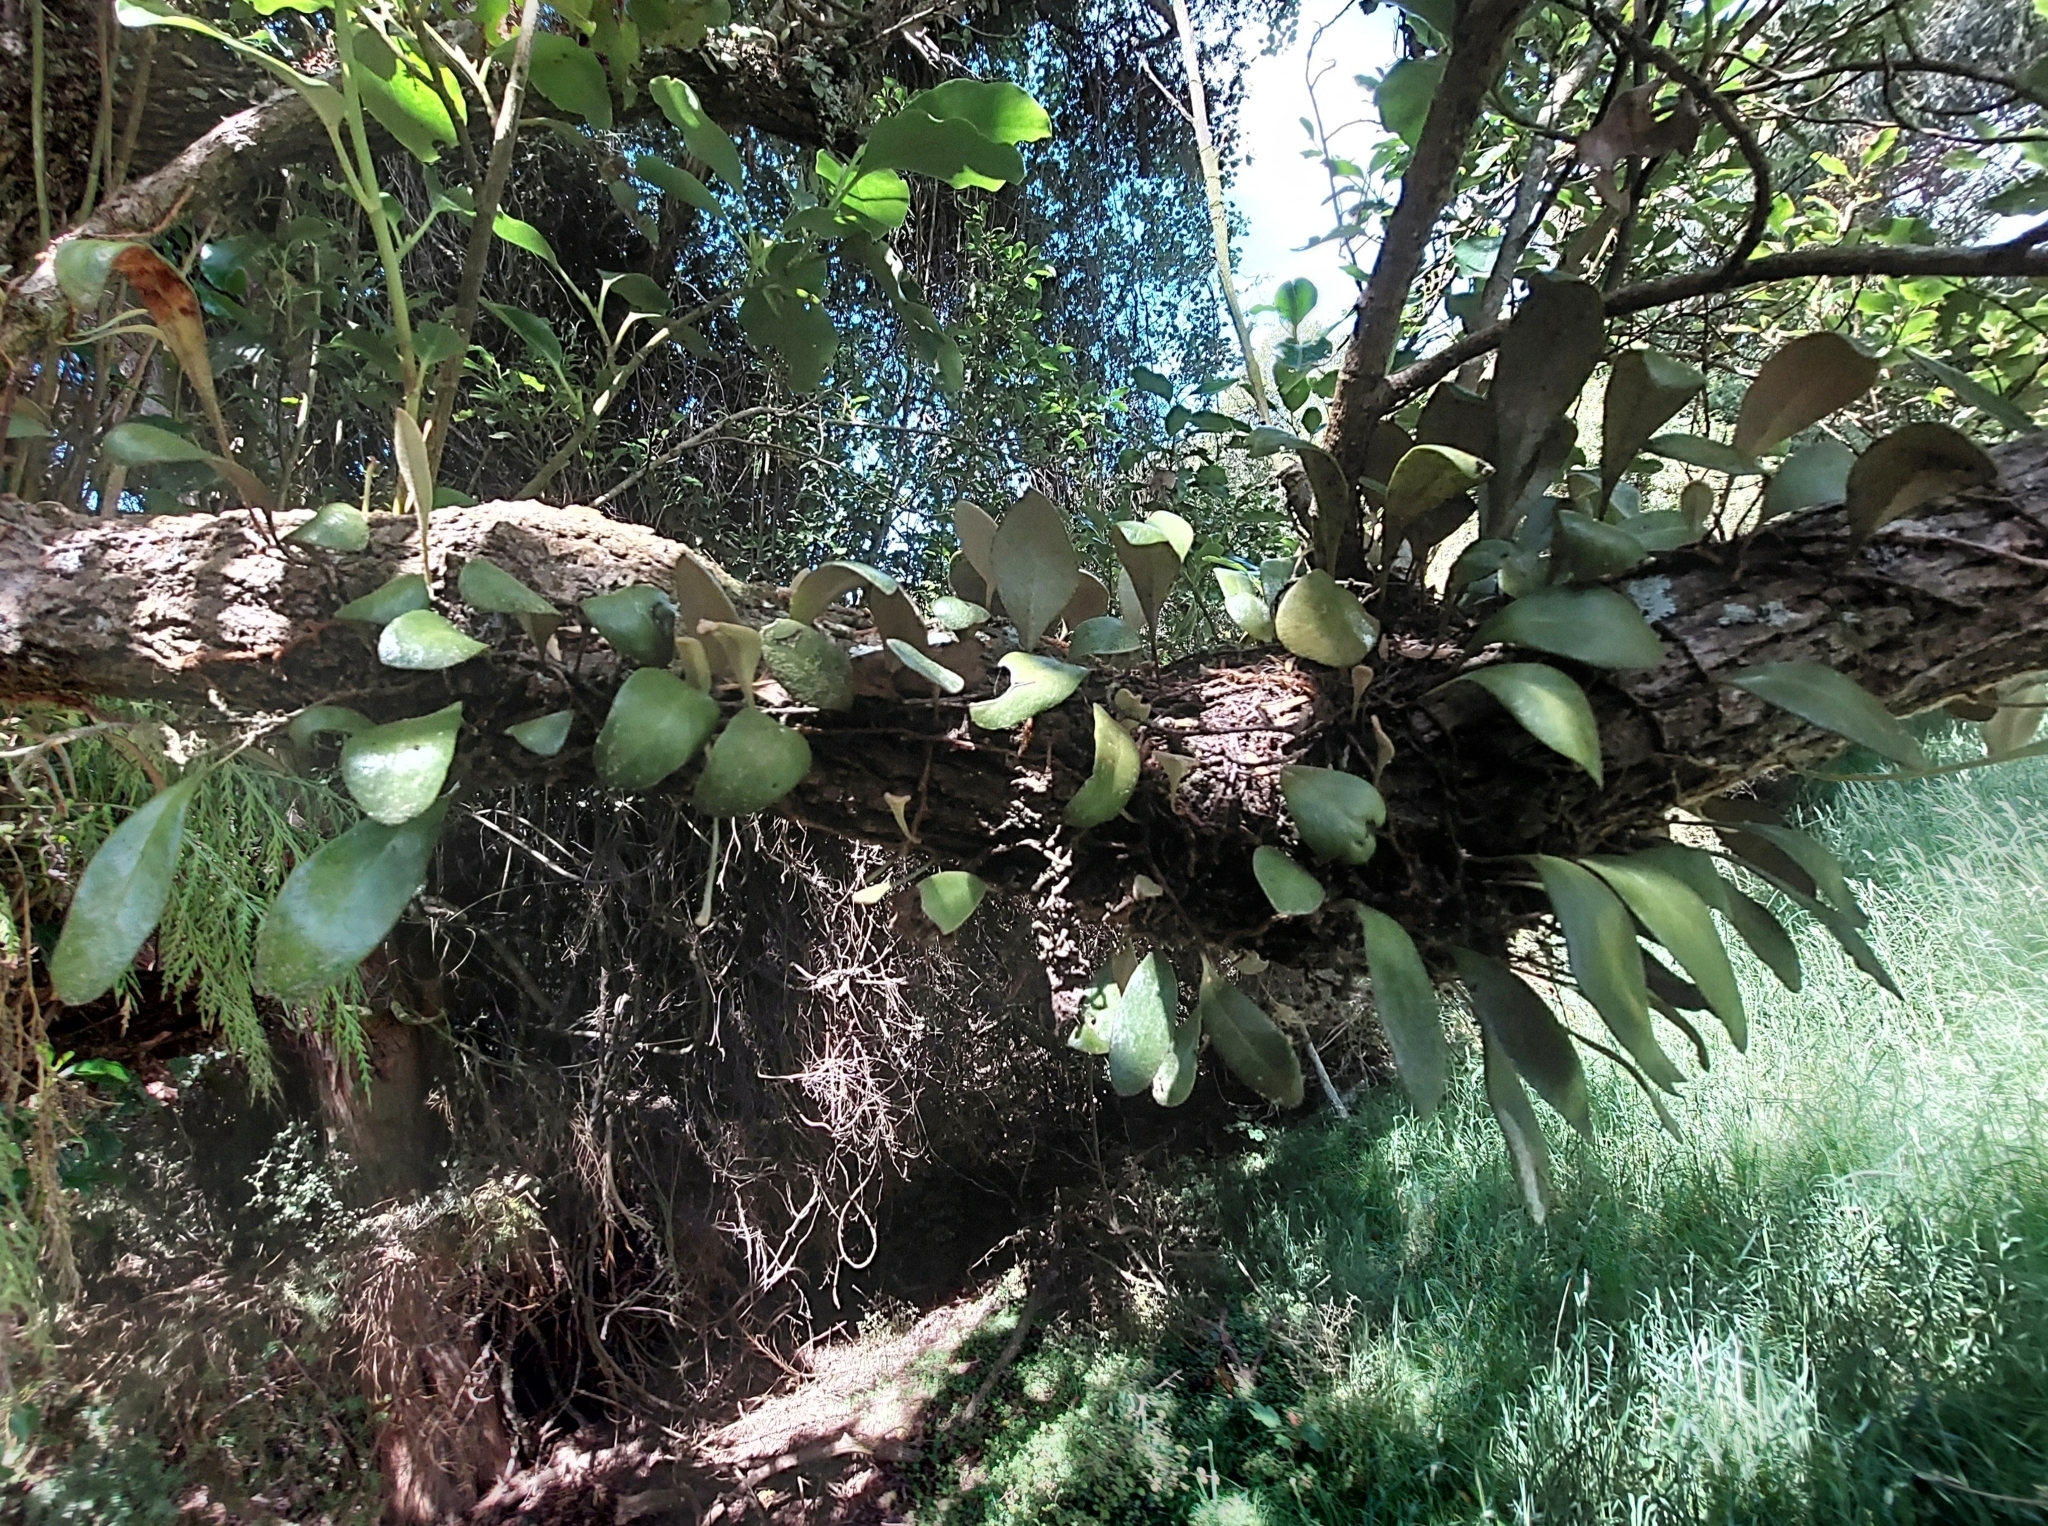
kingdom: Plantae
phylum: Tracheophyta
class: Polypodiopsida
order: Polypodiales
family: Polypodiaceae
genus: Pyrrosia
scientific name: Pyrrosia eleagnifolia
